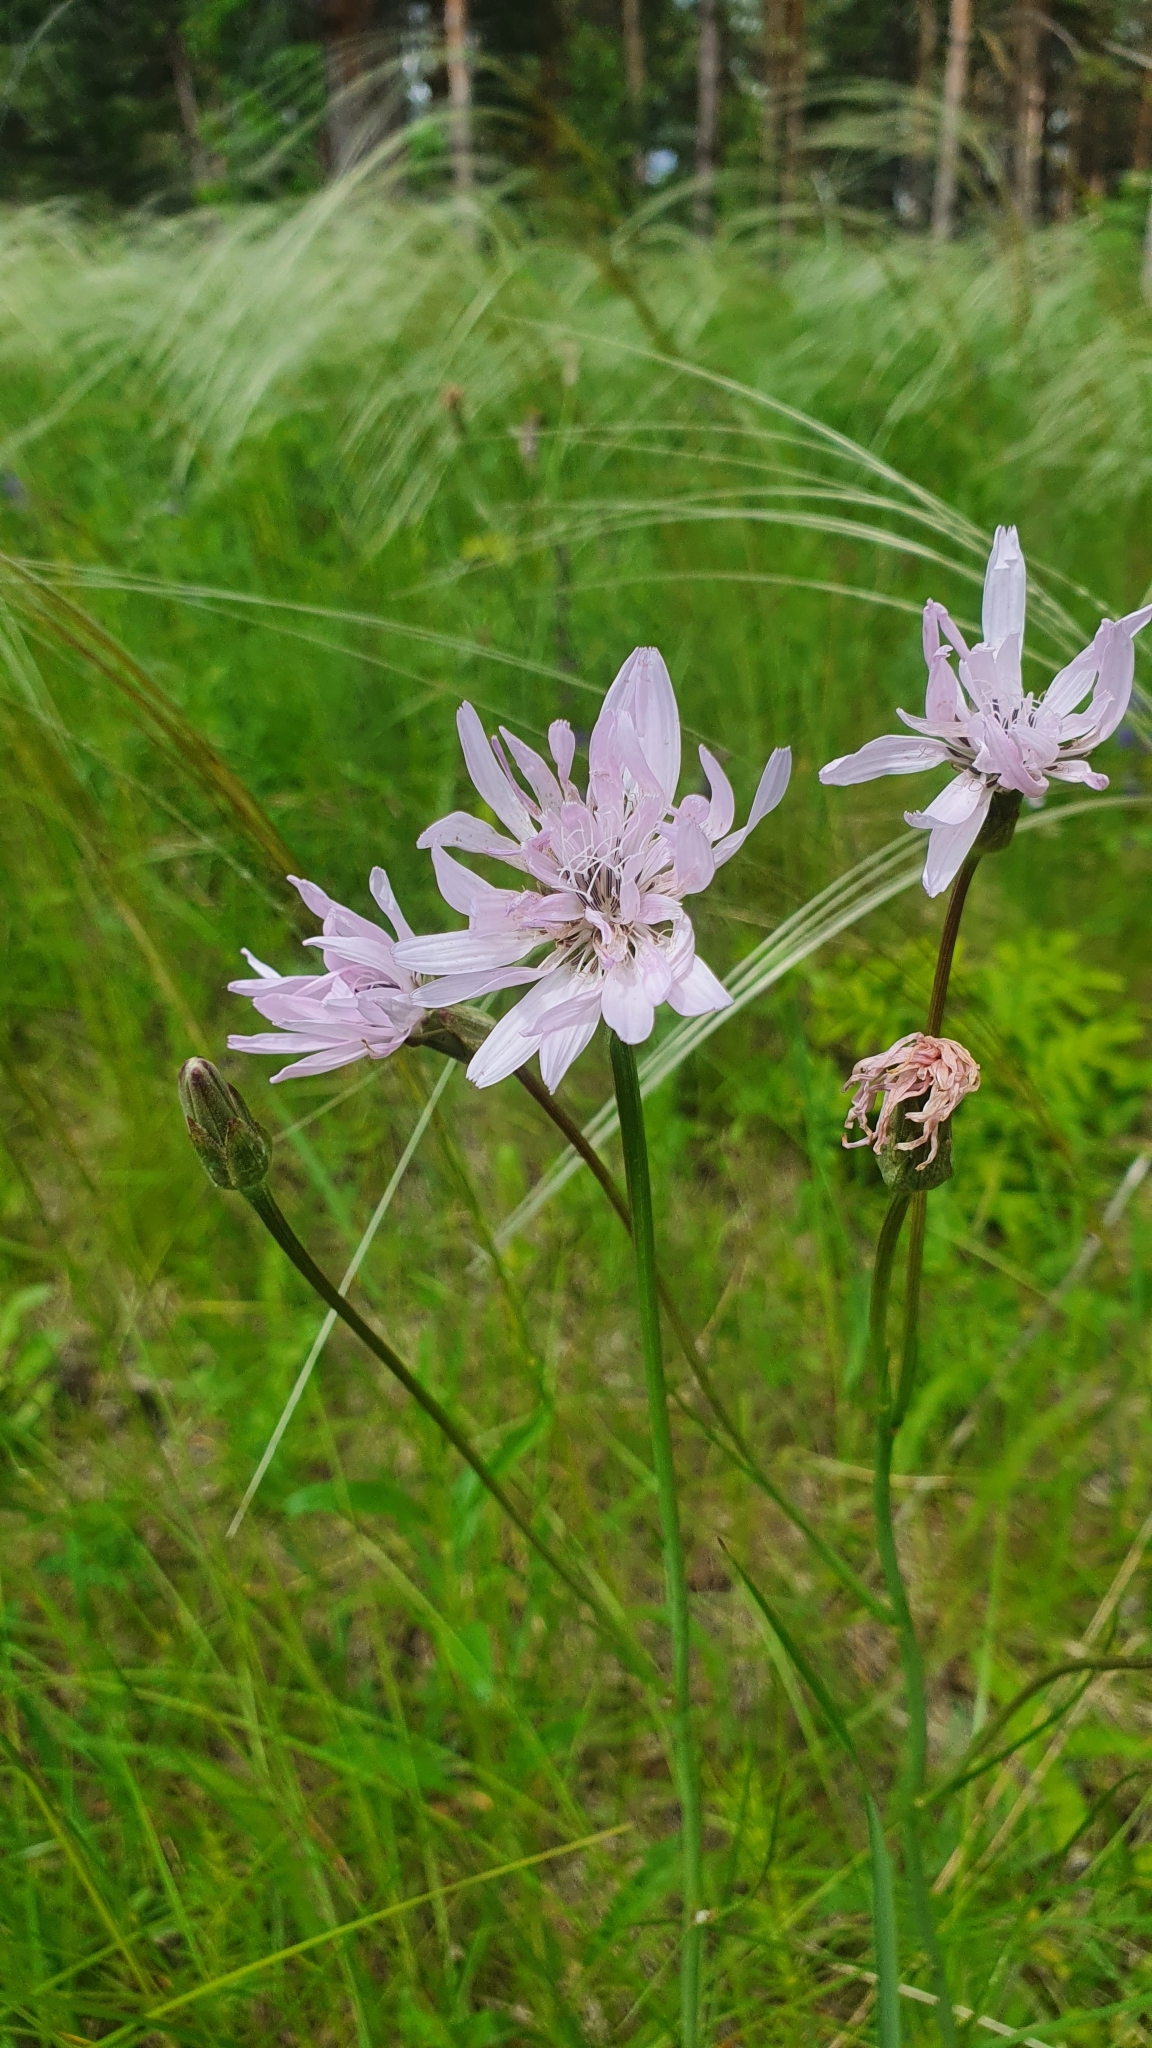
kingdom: Plantae
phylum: Tracheophyta
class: Magnoliopsida
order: Asterales
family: Asteraceae
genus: Scorzonera
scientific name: Scorzonera purpurea
